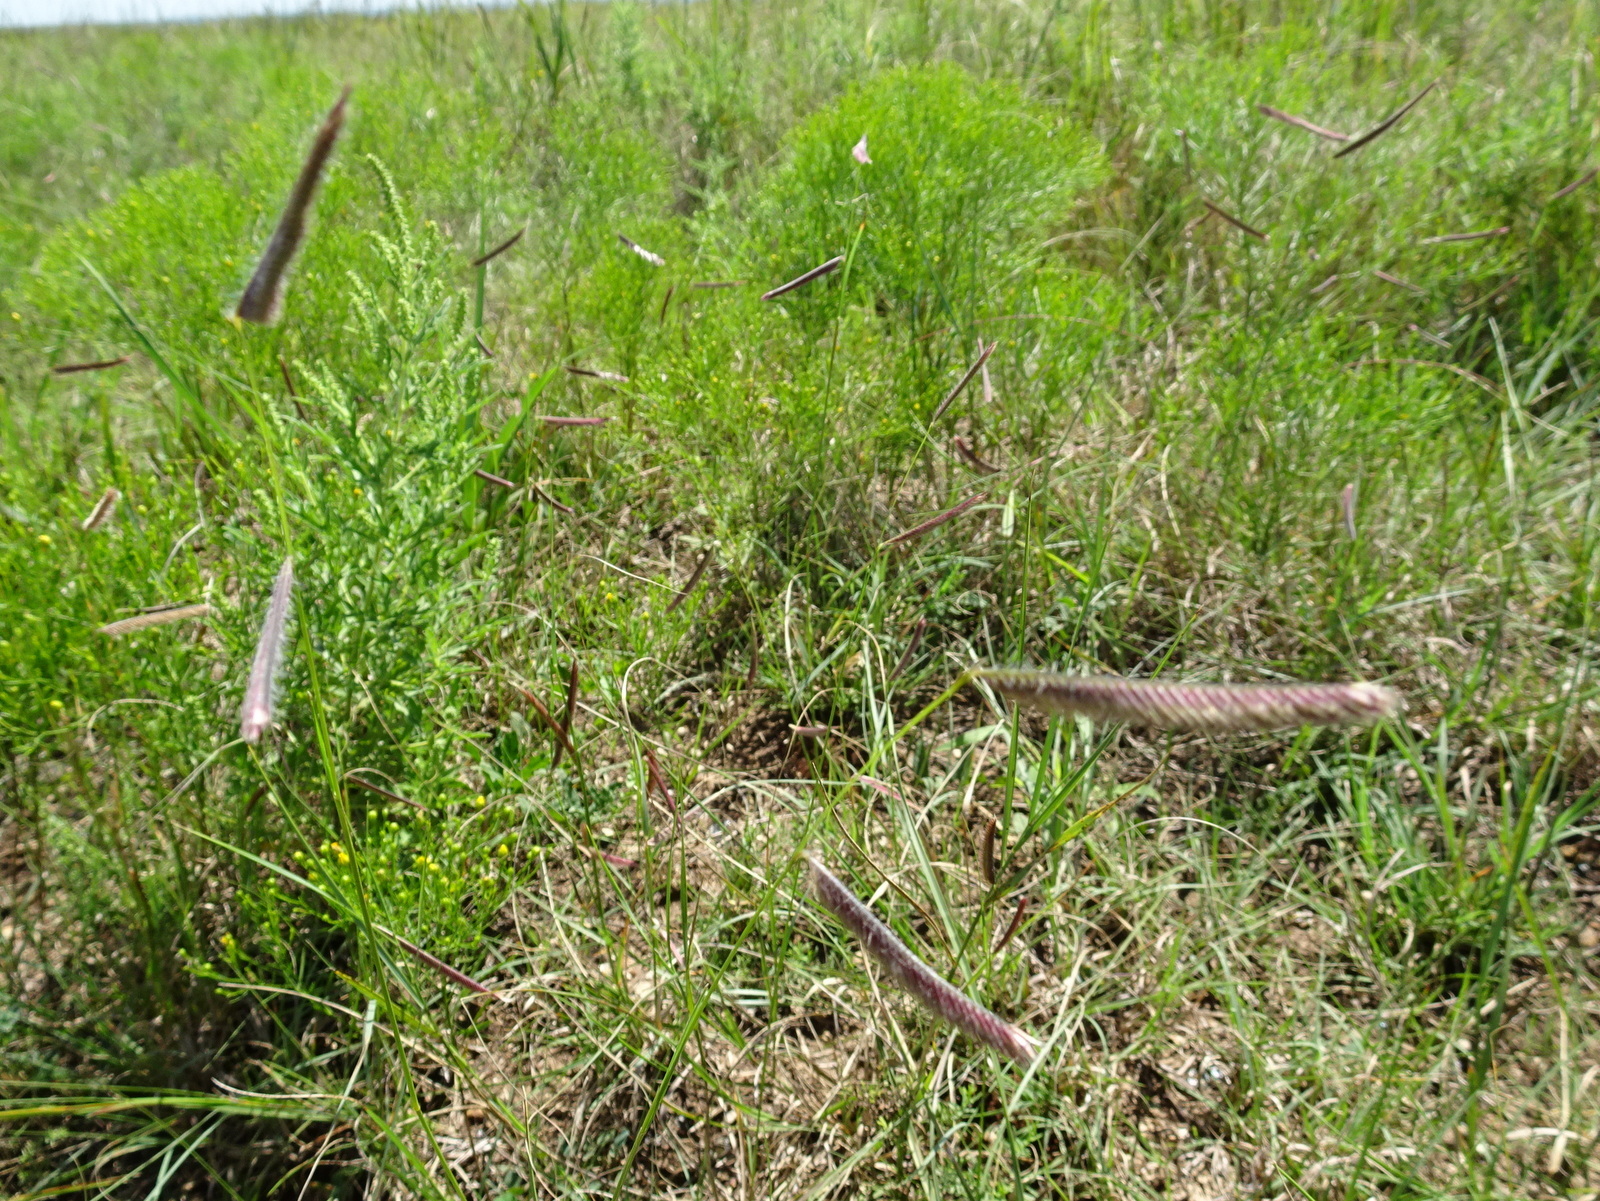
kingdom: Plantae
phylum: Tracheophyta
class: Liliopsida
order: Poales
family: Poaceae
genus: Bouteloua
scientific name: Bouteloua gracilis
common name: Blue grama
